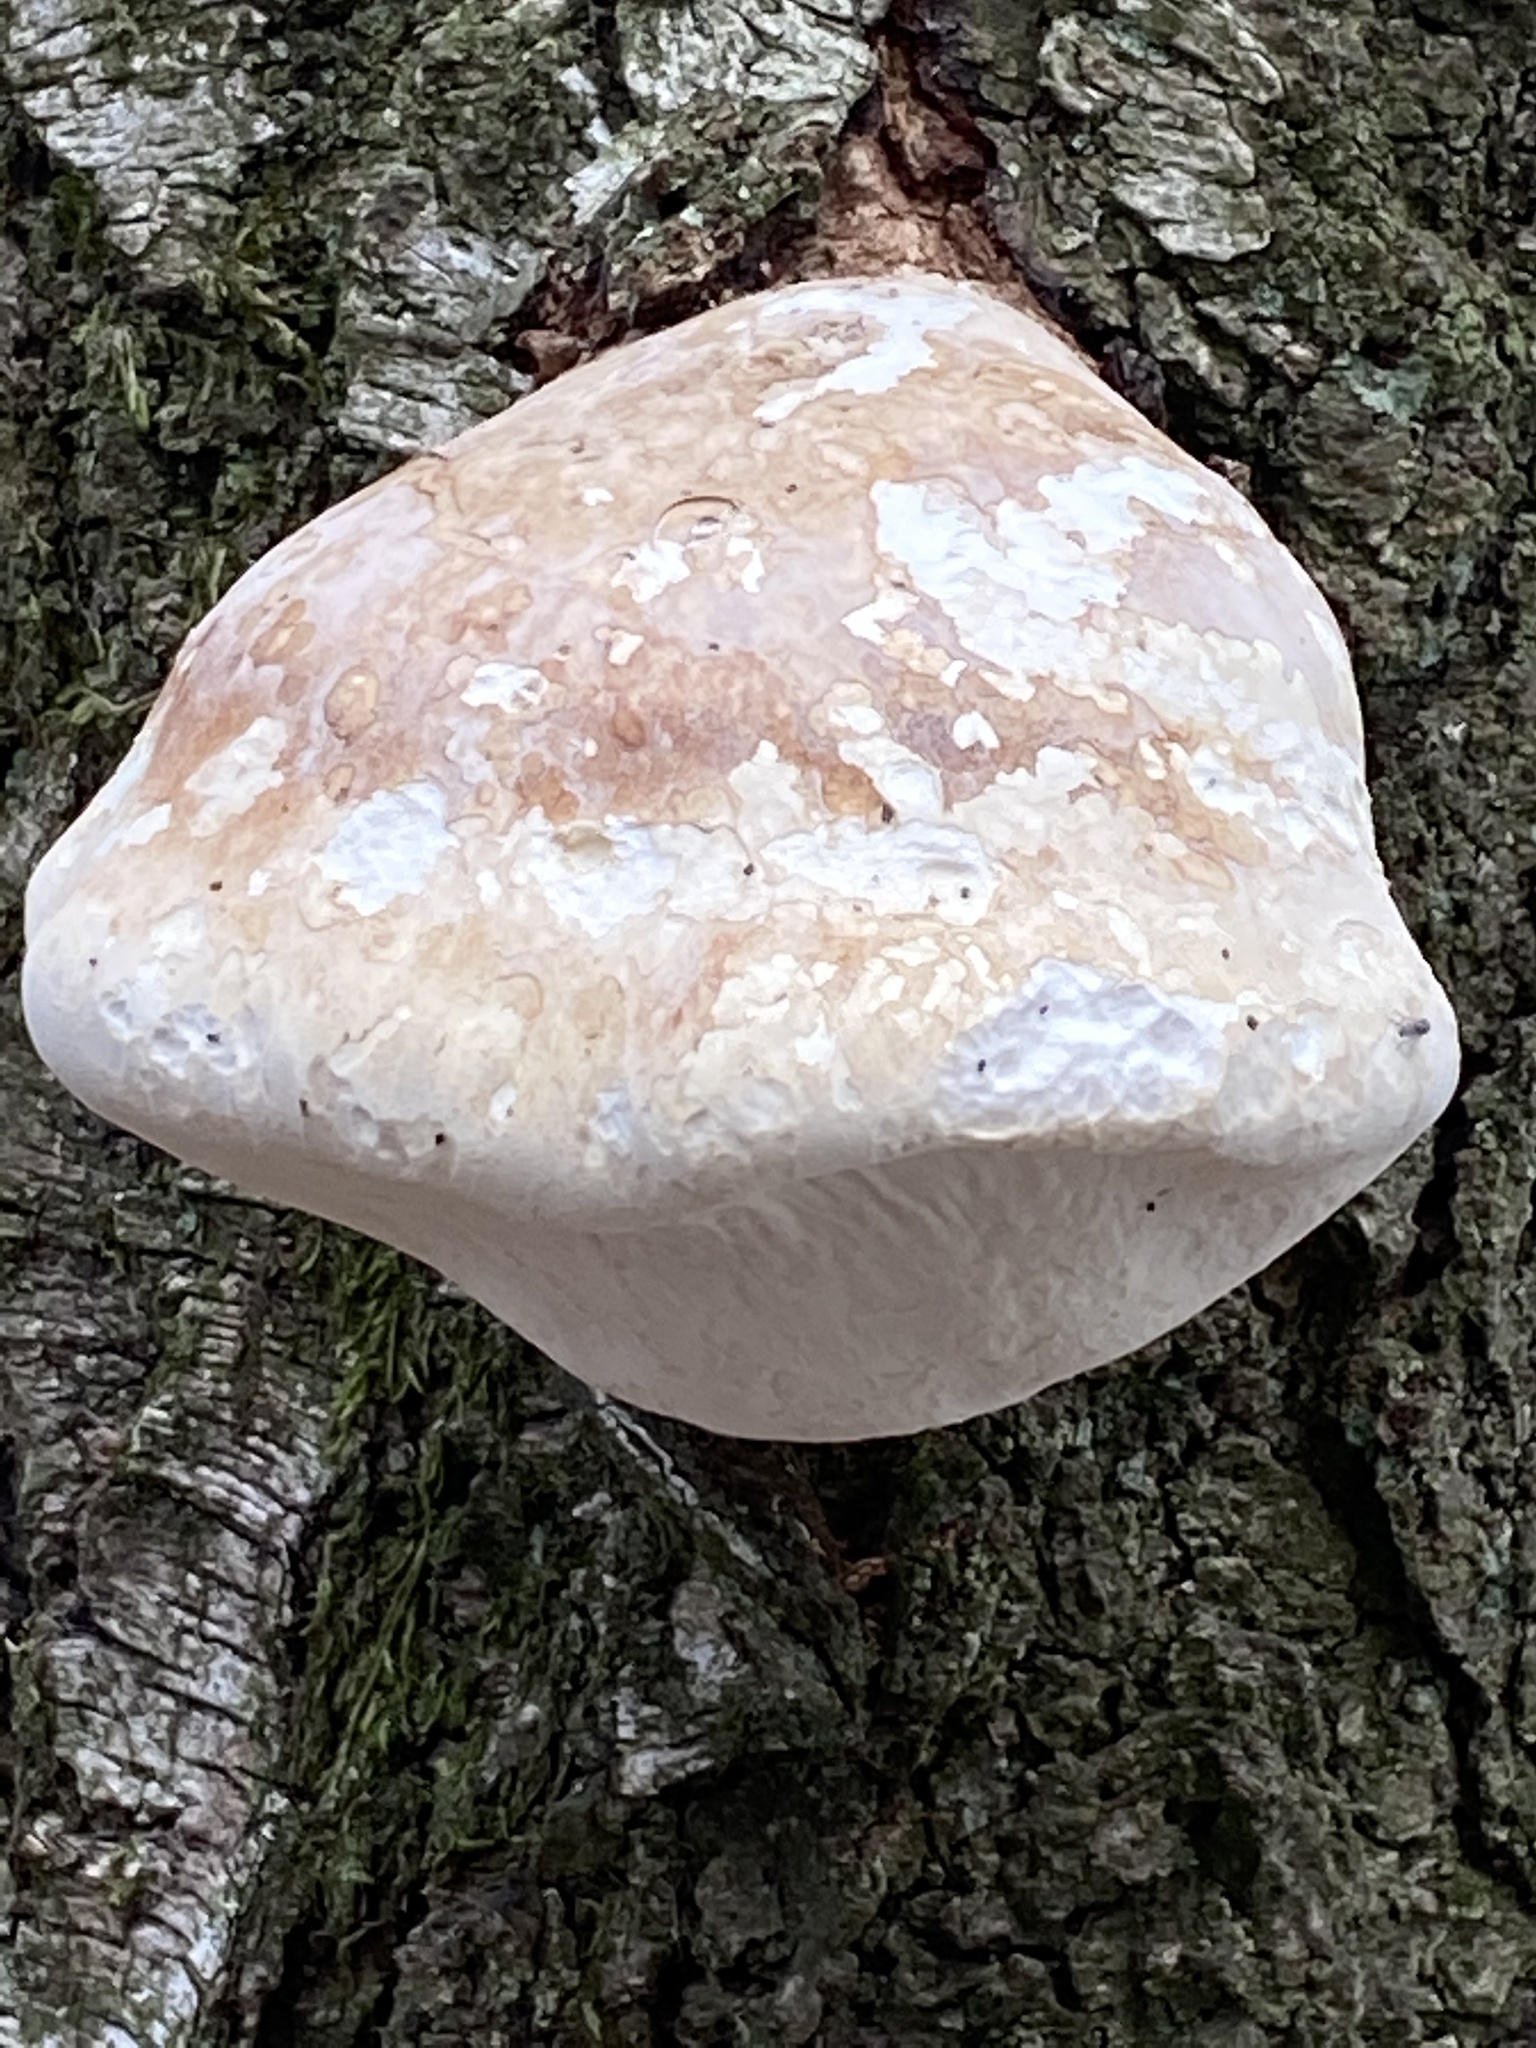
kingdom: Fungi
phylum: Basidiomycota
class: Agaricomycetes
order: Polyporales
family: Fomitopsidaceae
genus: Fomitopsis
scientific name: Fomitopsis betulina
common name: Birch polypore
